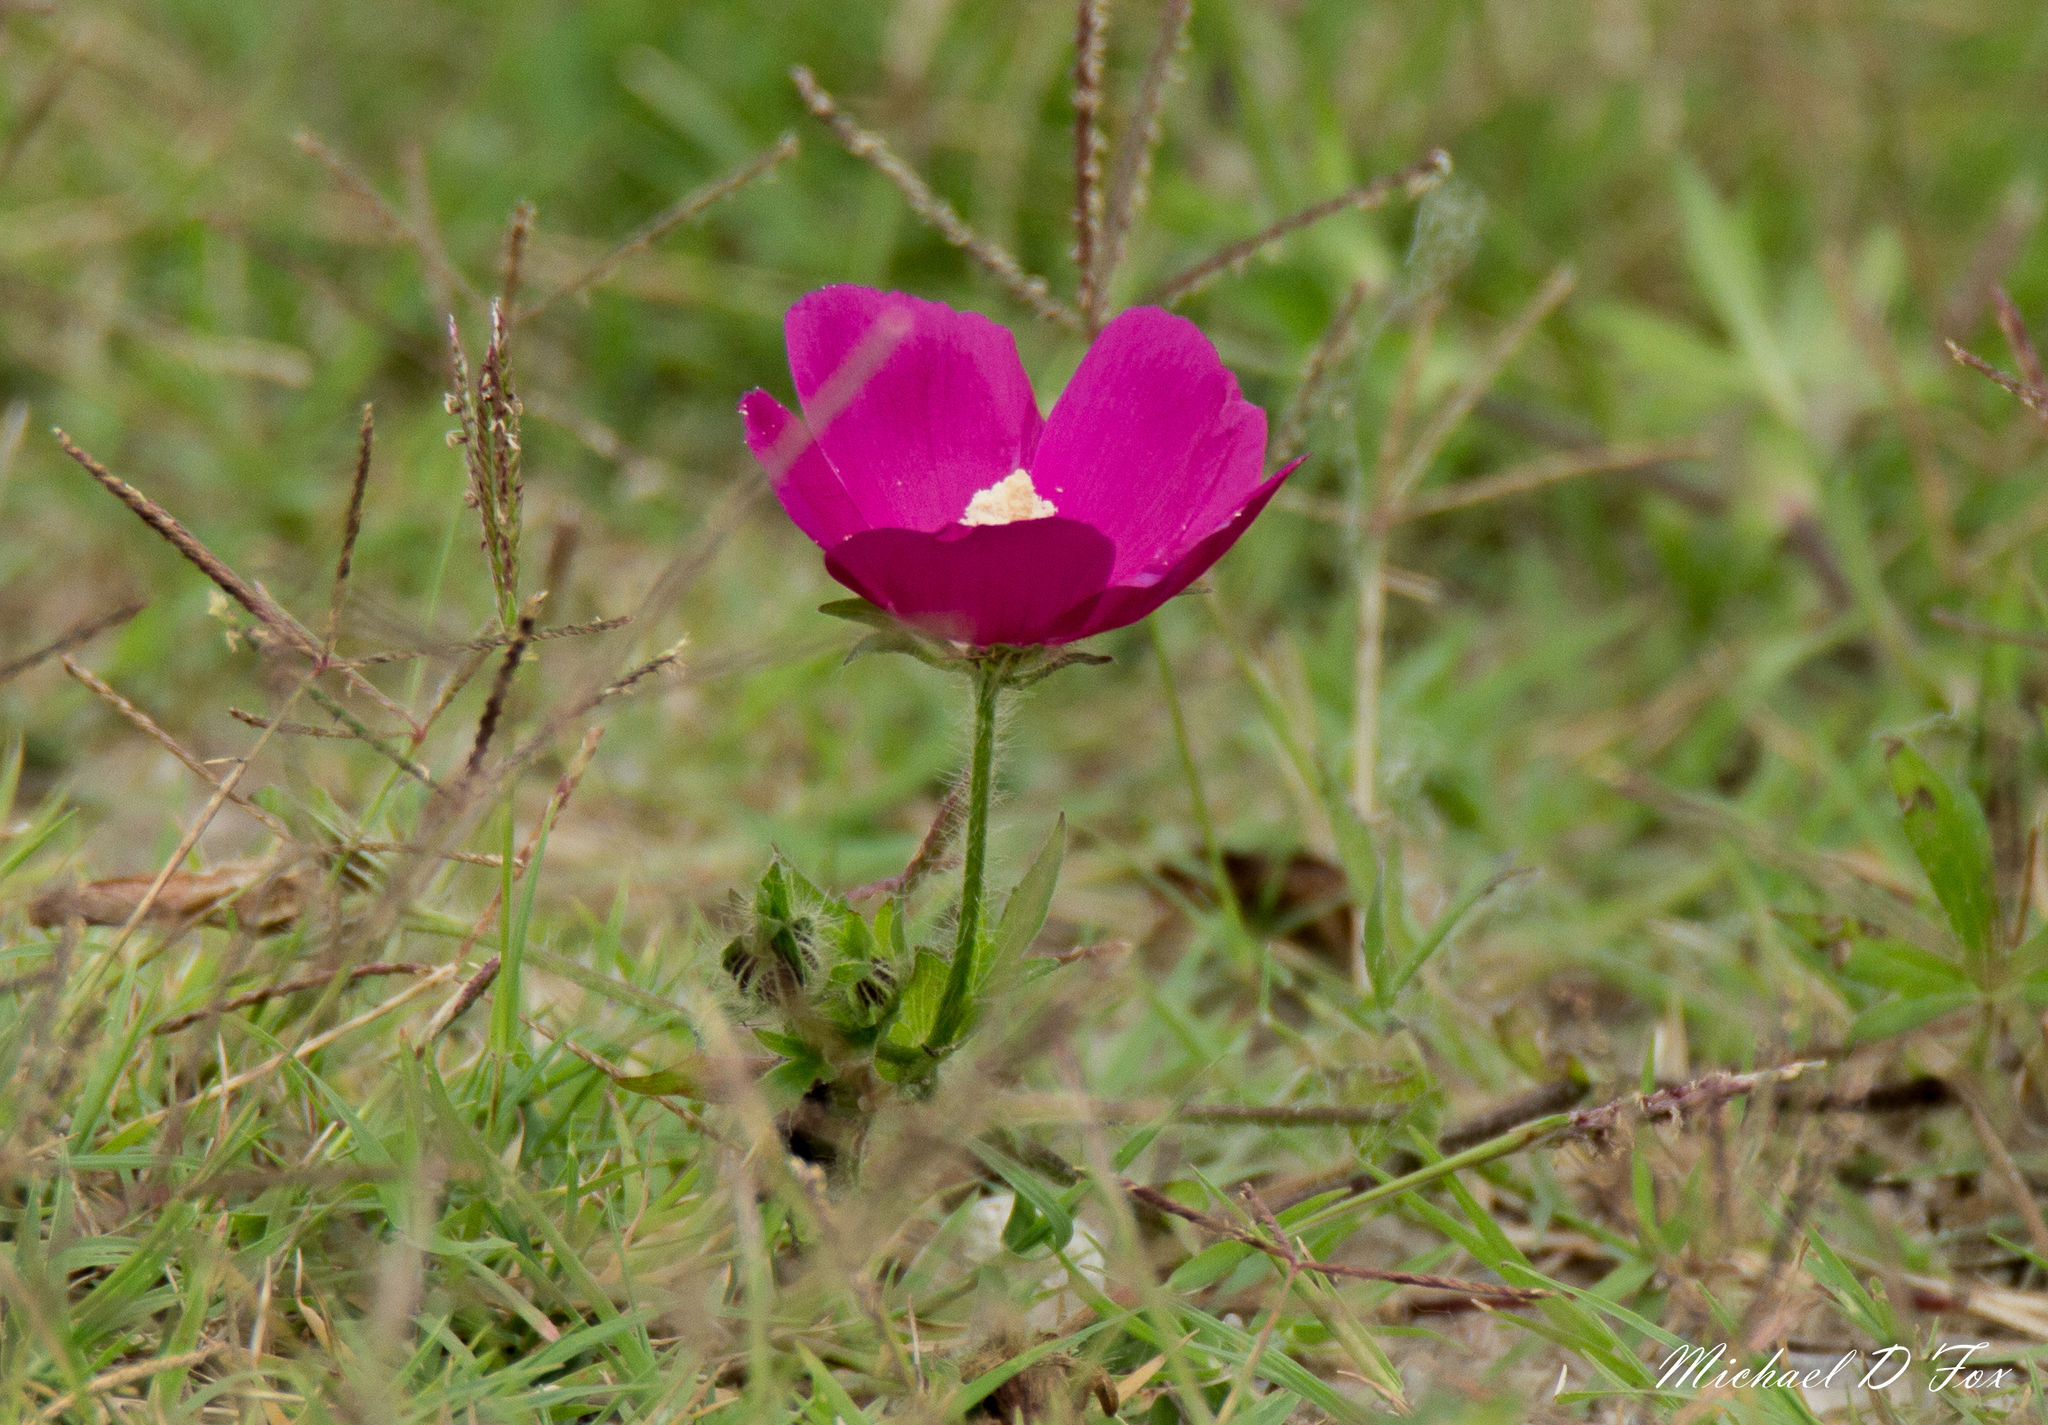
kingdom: Plantae
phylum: Tracheophyta
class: Magnoliopsida
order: Malvales
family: Malvaceae
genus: Callirhoe
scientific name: Callirhoe involucrata
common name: Purple poppy-mallow
